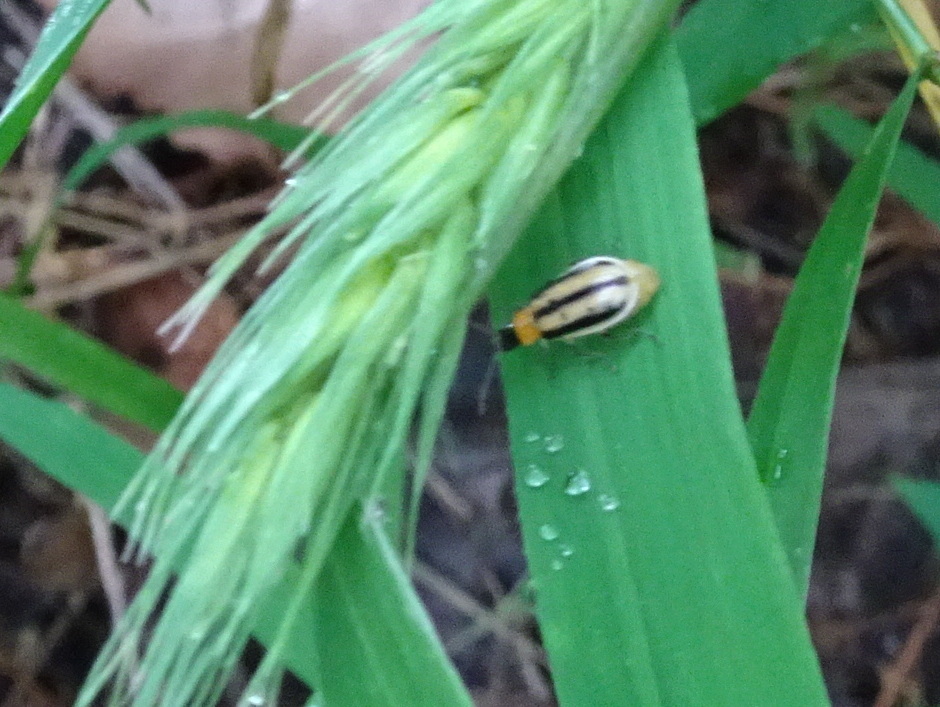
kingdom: Animalia
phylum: Arthropoda
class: Insecta
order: Coleoptera
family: Chrysomelidae
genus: Acalymma
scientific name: Acalymma vittatum
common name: Striped cucumber beetle
